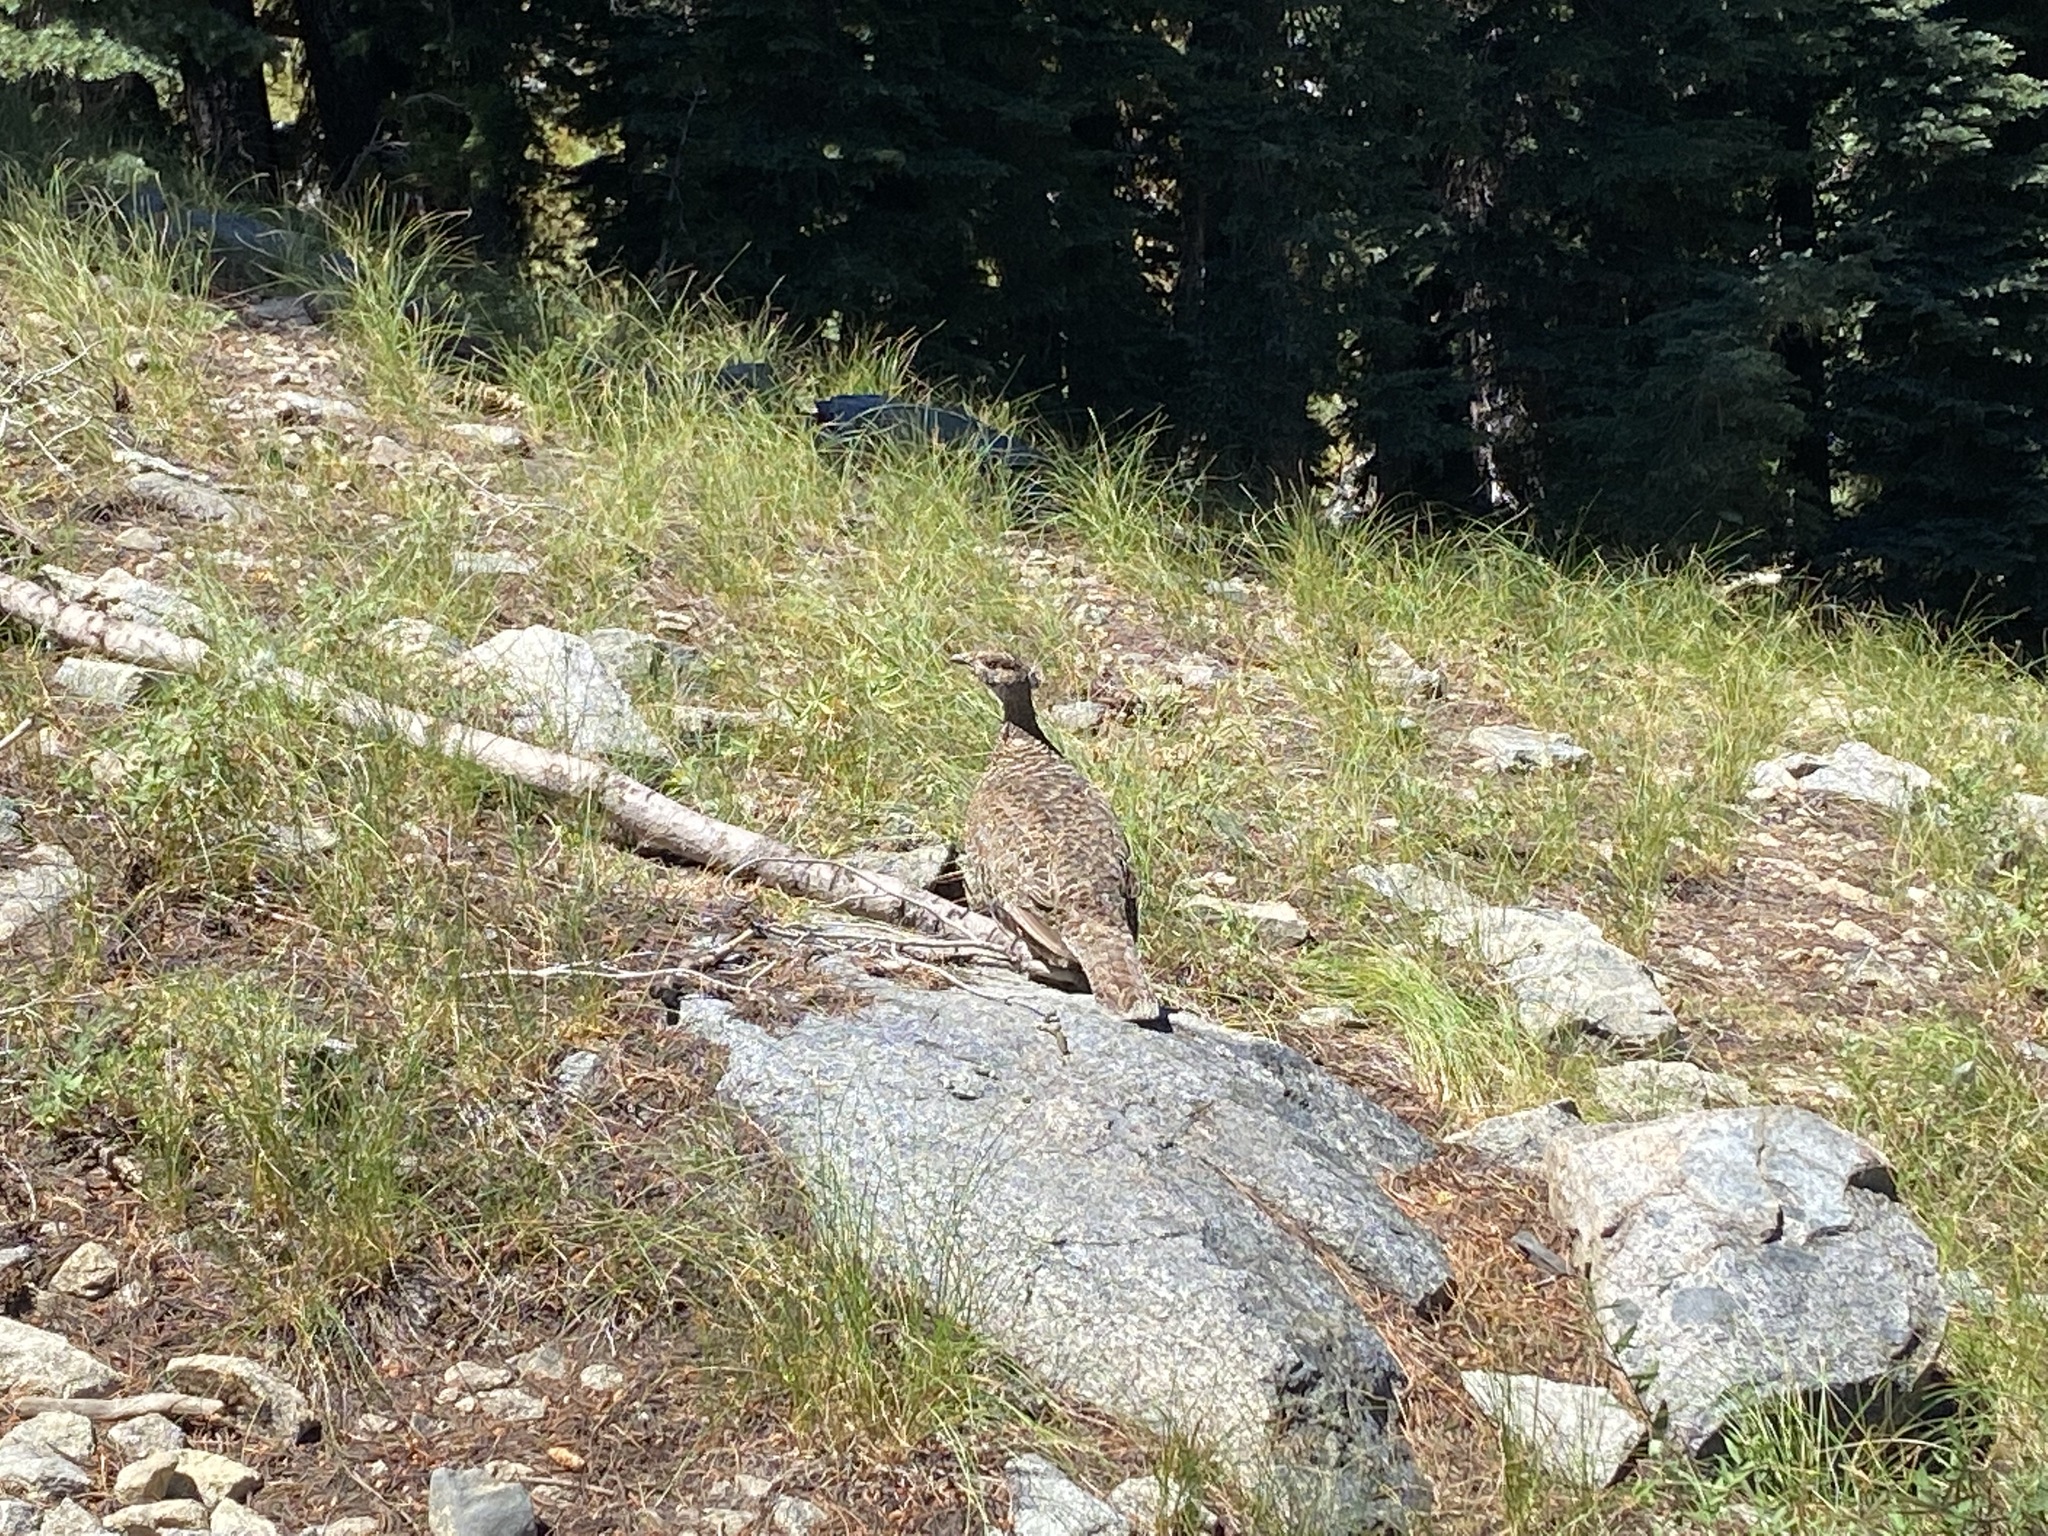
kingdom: Animalia
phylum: Chordata
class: Aves
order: Galliformes
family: Phasianidae
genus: Dendragapus
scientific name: Dendragapus fuliginosus
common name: Sooty grouse
